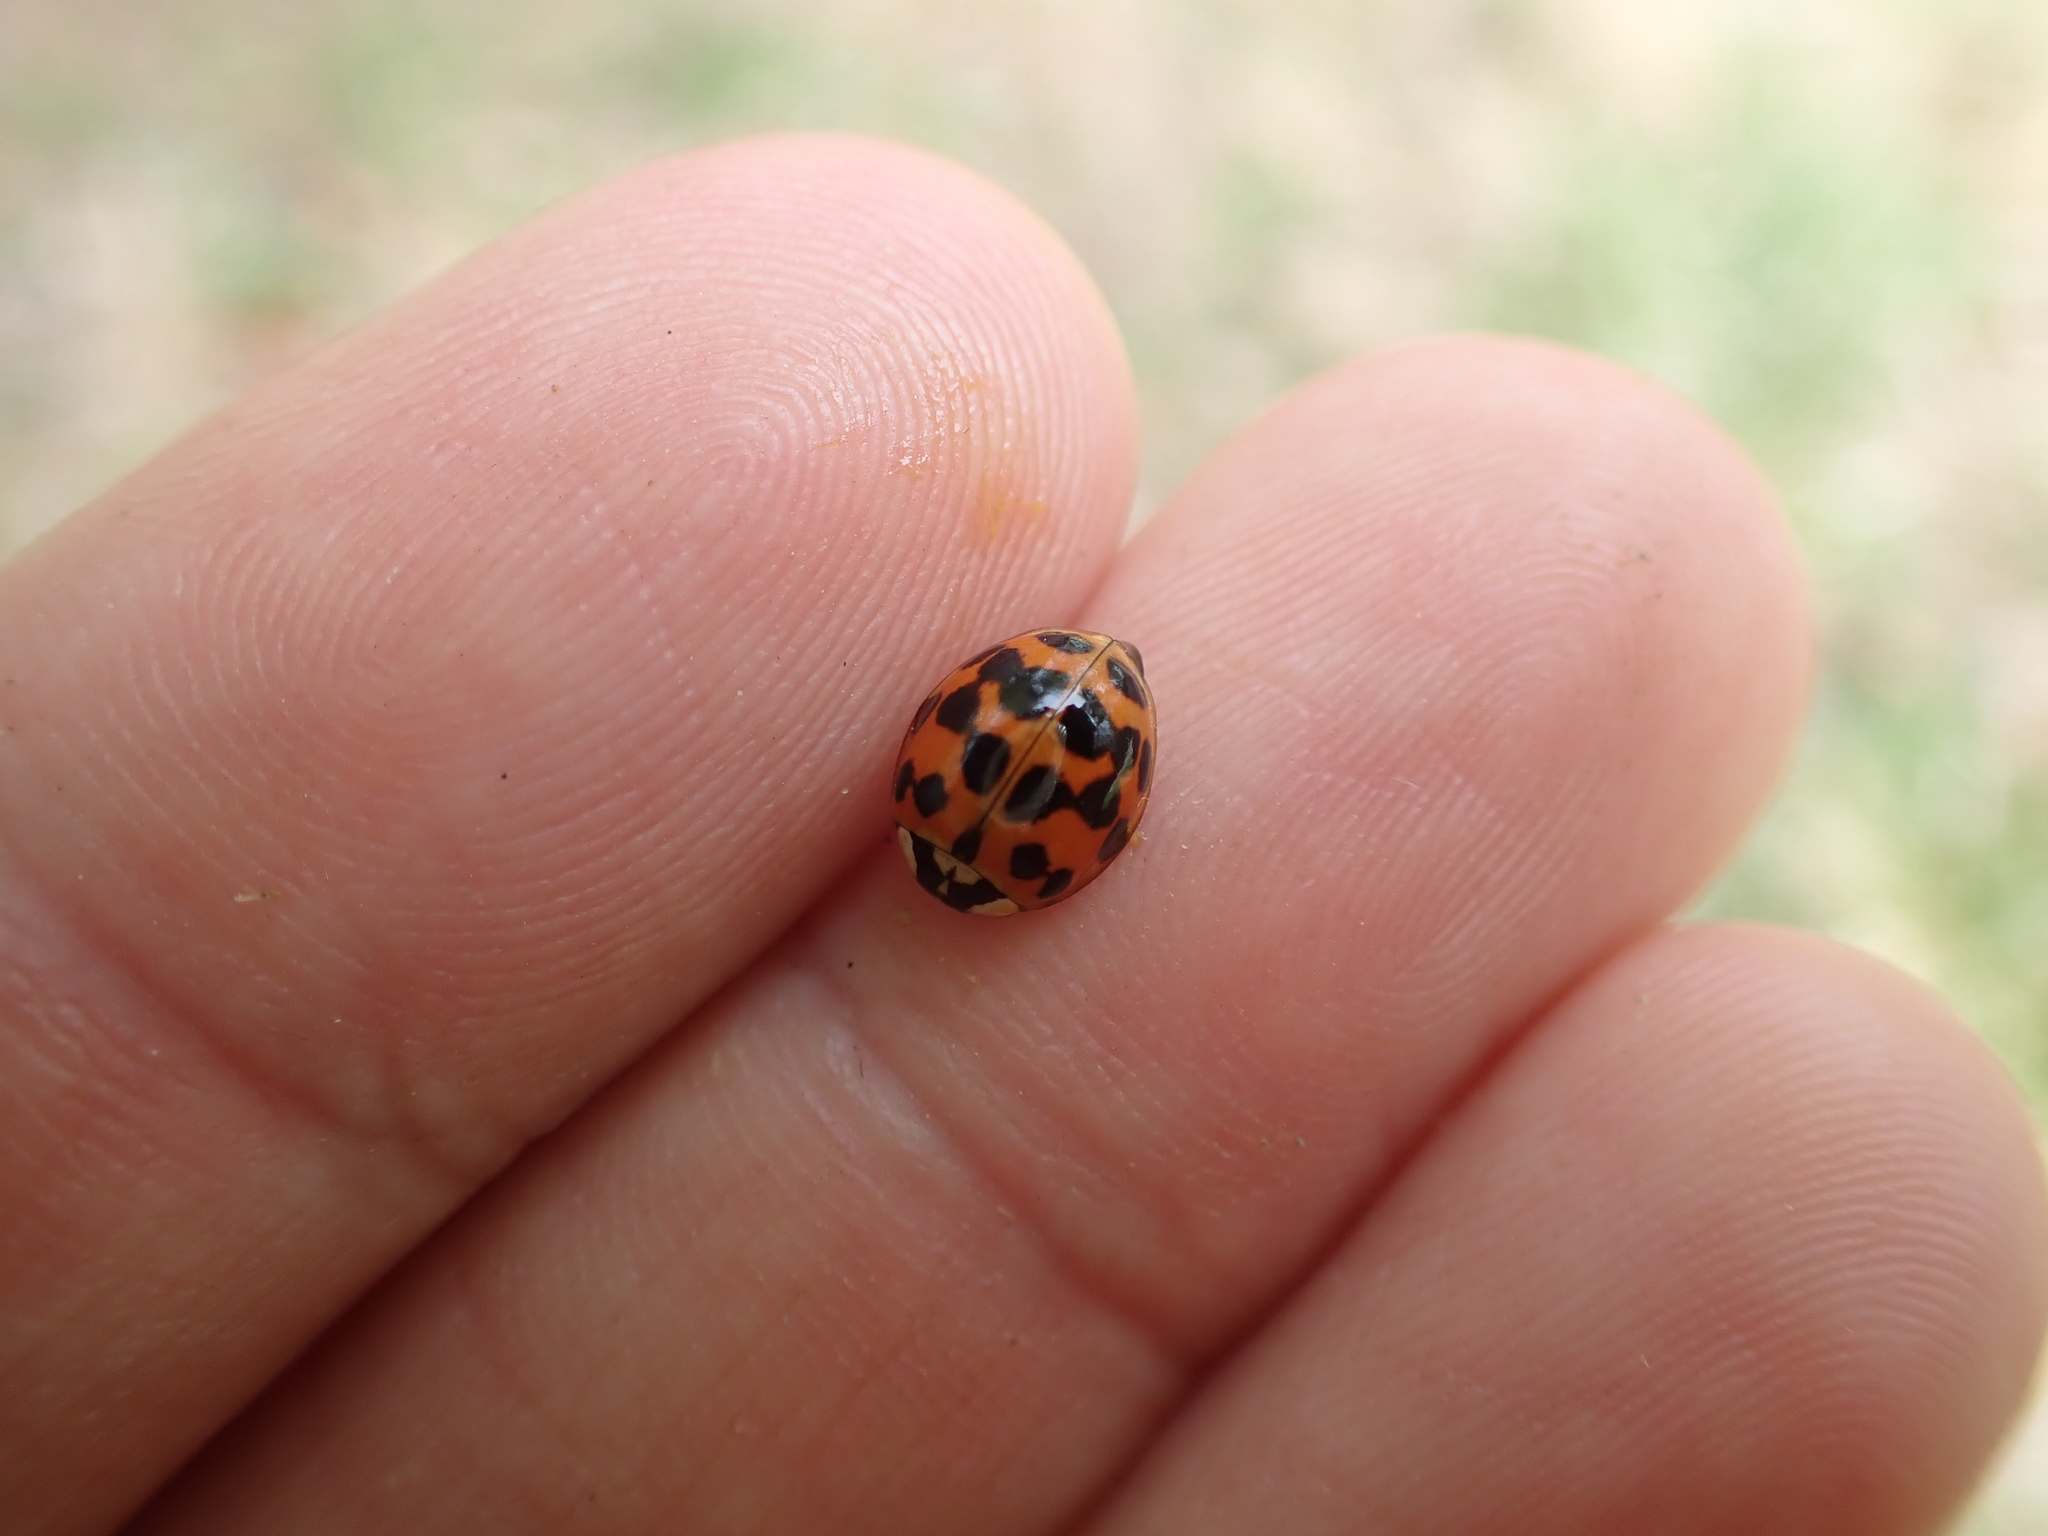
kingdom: Animalia
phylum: Arthropoda
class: Insecta
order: Coleoptera
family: Coccinellidae
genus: Harmonia
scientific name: Harmonia axyridis
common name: Harlequin ladybird
